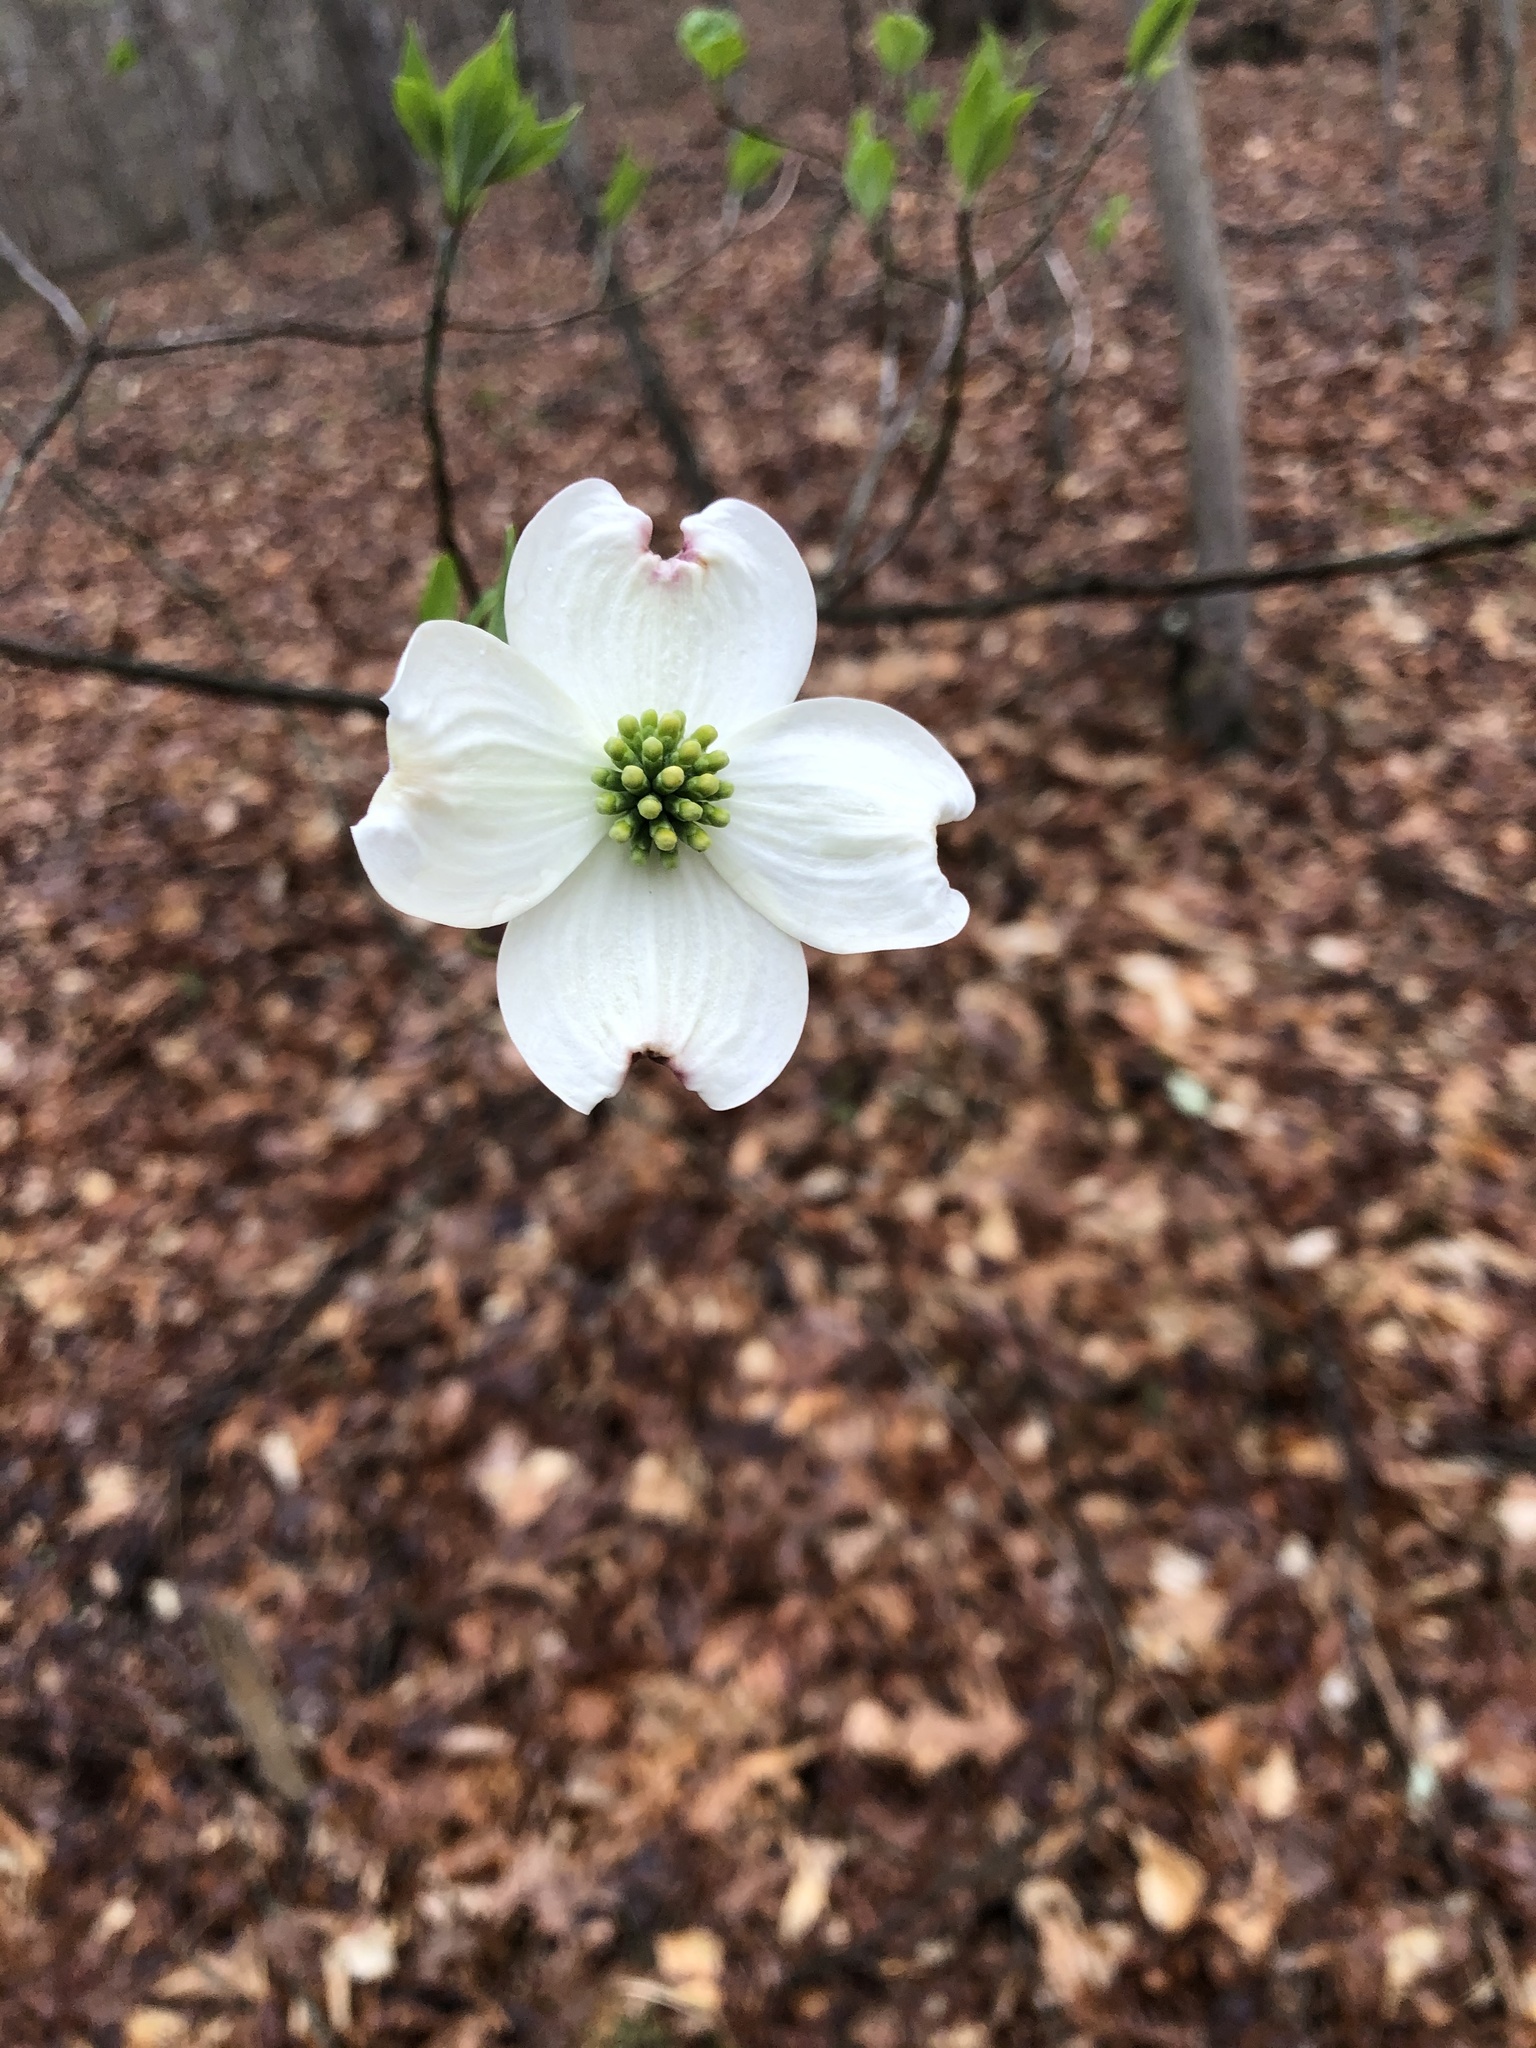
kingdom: Plantae
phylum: Tracheophyta
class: Magnoliopsida
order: Cornales
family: Cornaceae
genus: Cornus
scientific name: Cornus florida
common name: Flowering dogwood
